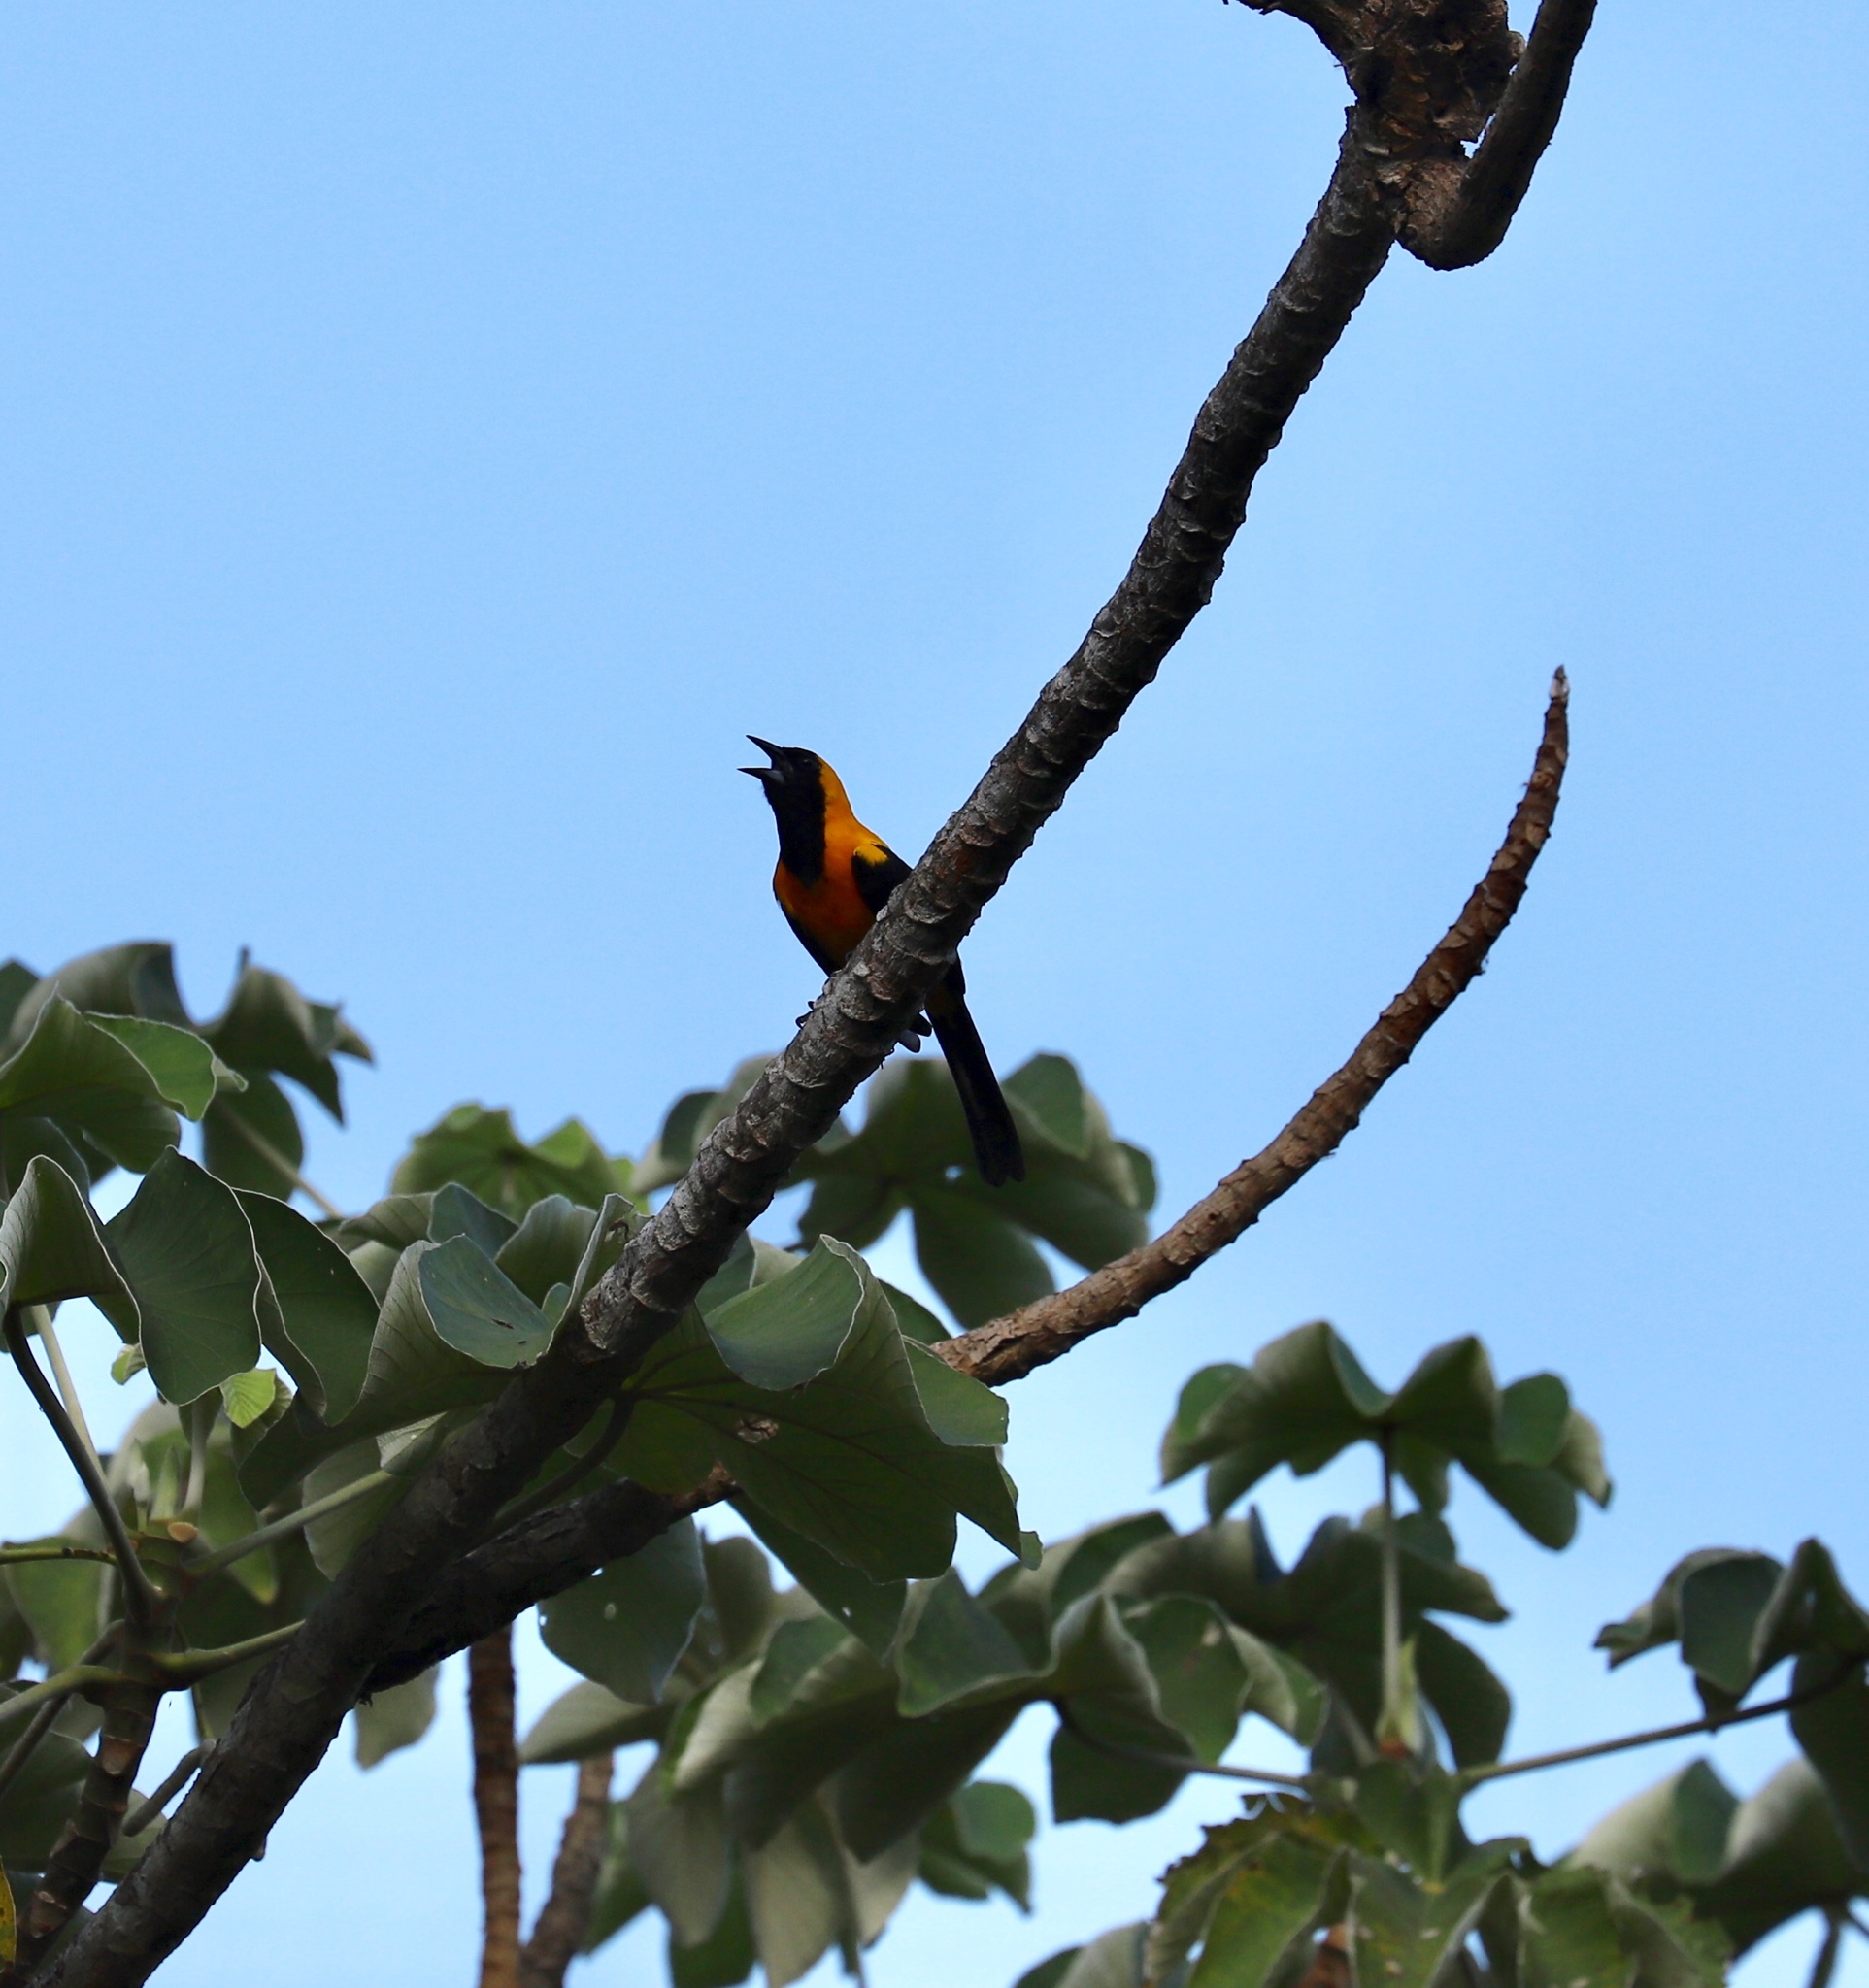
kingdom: Animalia
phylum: Chordata
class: Aves
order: Passeriformes
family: Icteridae
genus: Icterus
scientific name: Icterus chrysater
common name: Yellow-backed oriole
